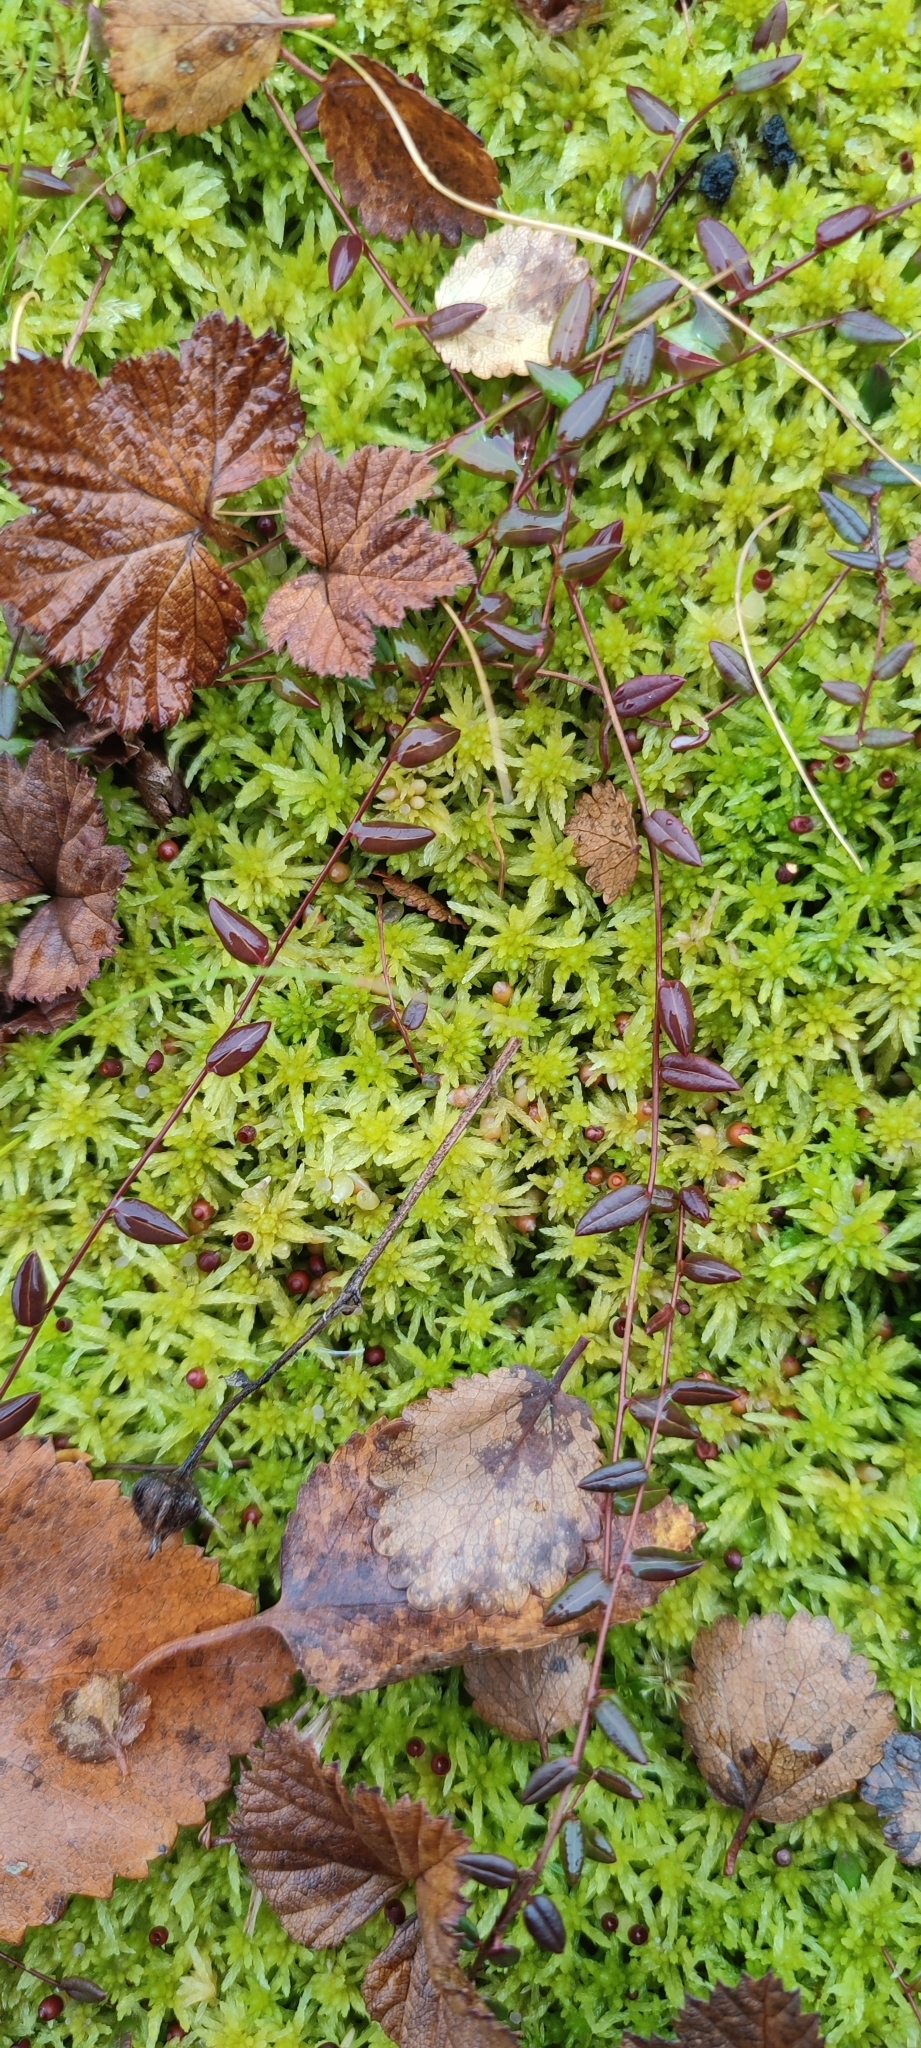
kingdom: Plantae
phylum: Tracheophyta
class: Magnoliopsida
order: Ericales
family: Ericaceae
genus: Vaccinium
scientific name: Vaccinium oxycoccos
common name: Cranberry
